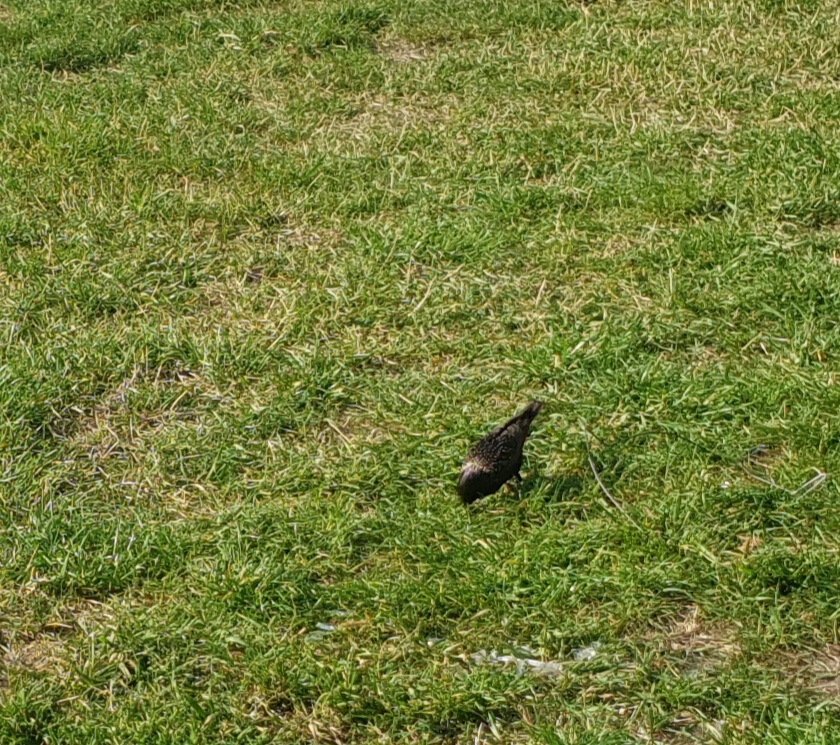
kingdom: Animalia
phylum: Chordata
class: Aves
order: Passeriformes
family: Sturnidae
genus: Sturnus
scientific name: Sturnus vulgaris
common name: Common starling
